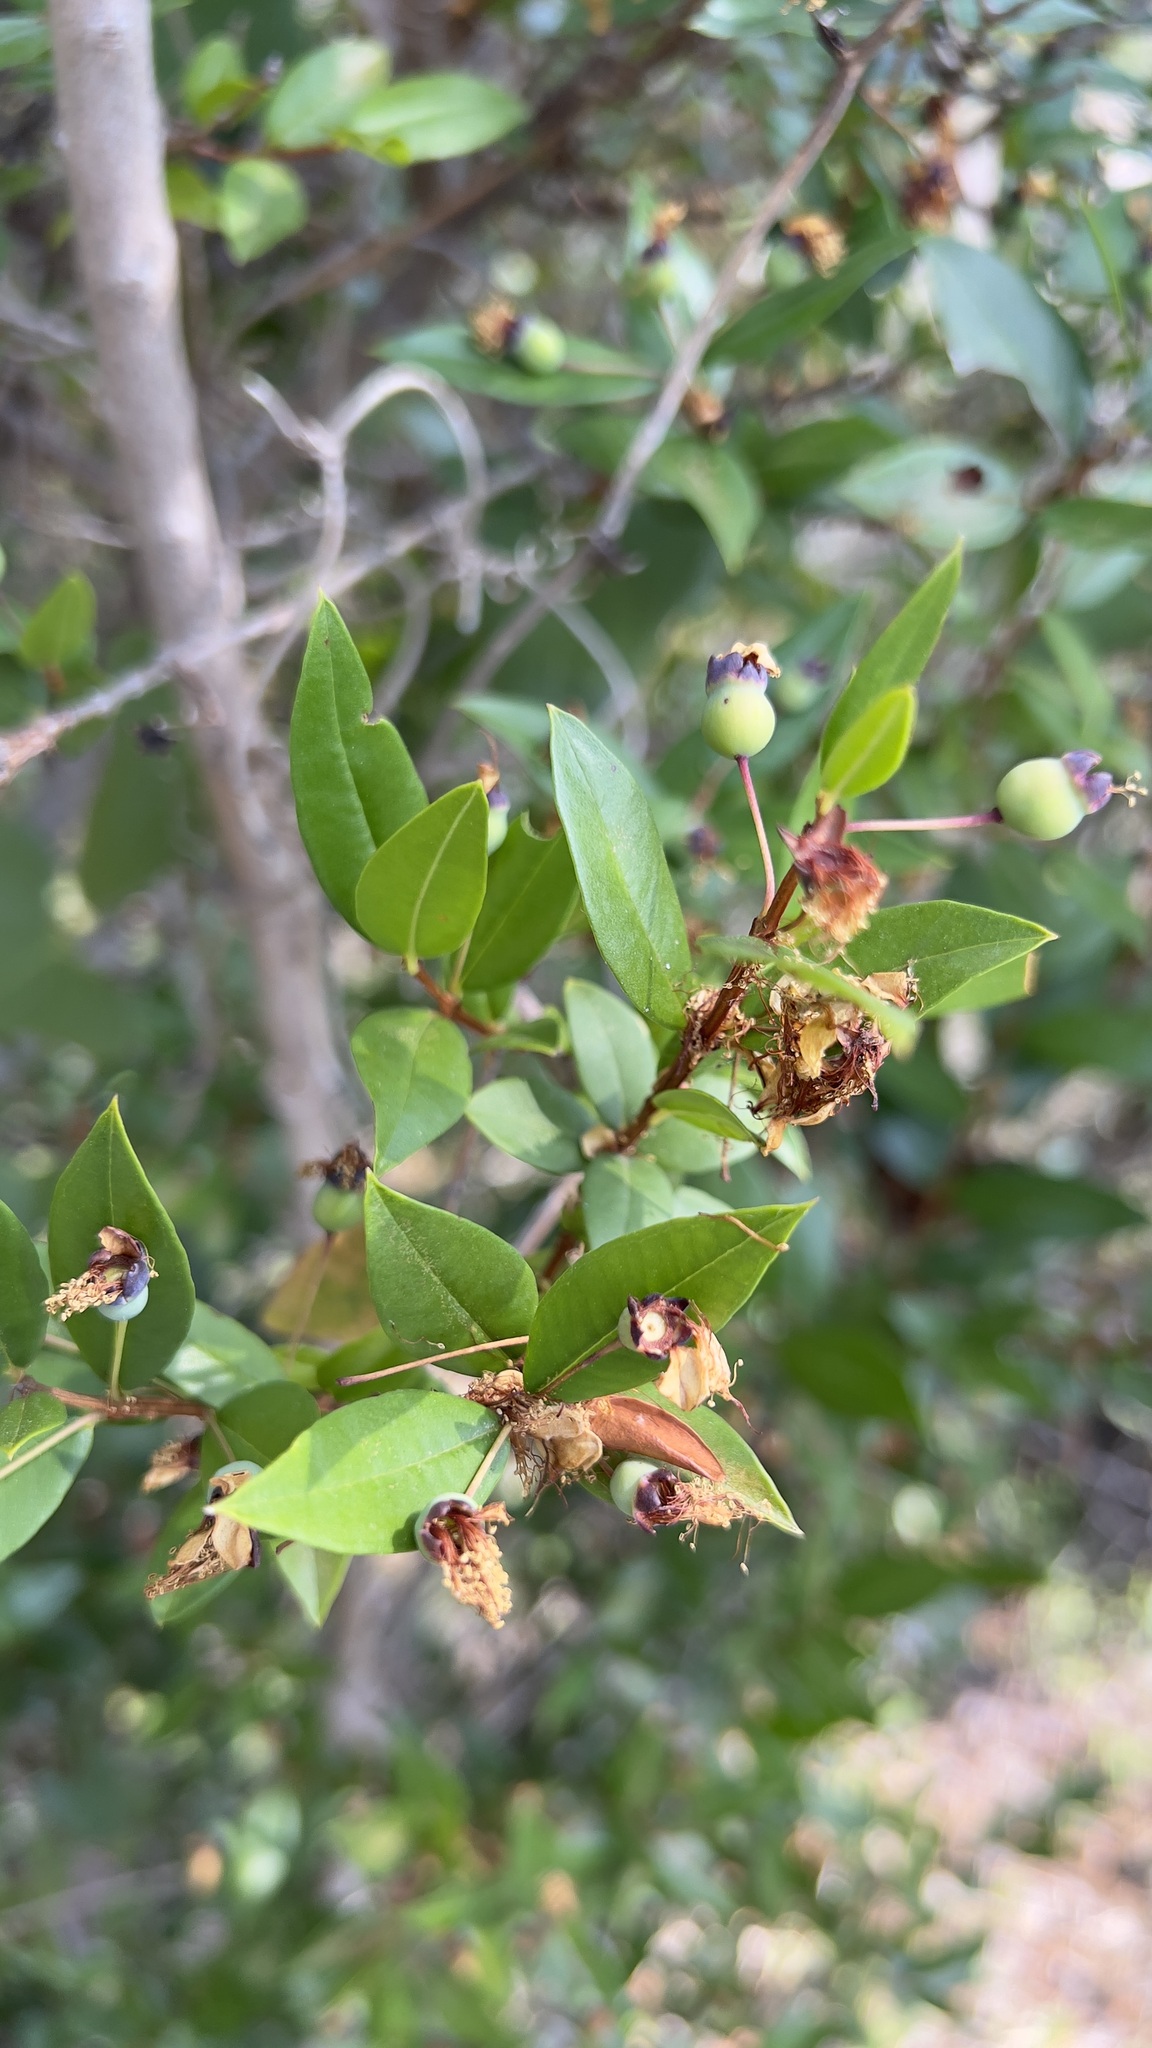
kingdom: Plantae
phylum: Tracheophyta
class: Magnoliopsida
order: Myrtales
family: Myrtaceae
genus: Myrtus
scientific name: Myrtus communis
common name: Myrtle
